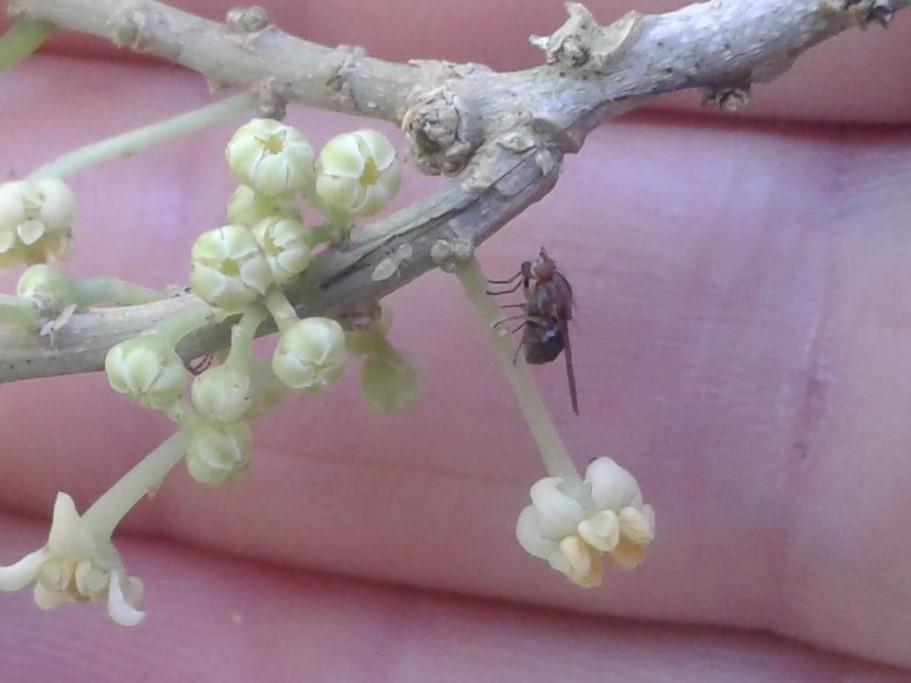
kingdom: Animalia
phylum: Arthropoda
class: Insecta
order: Diptera
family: Lauxaniidae
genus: Sapromyza
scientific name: Sapromyza neozelandica
